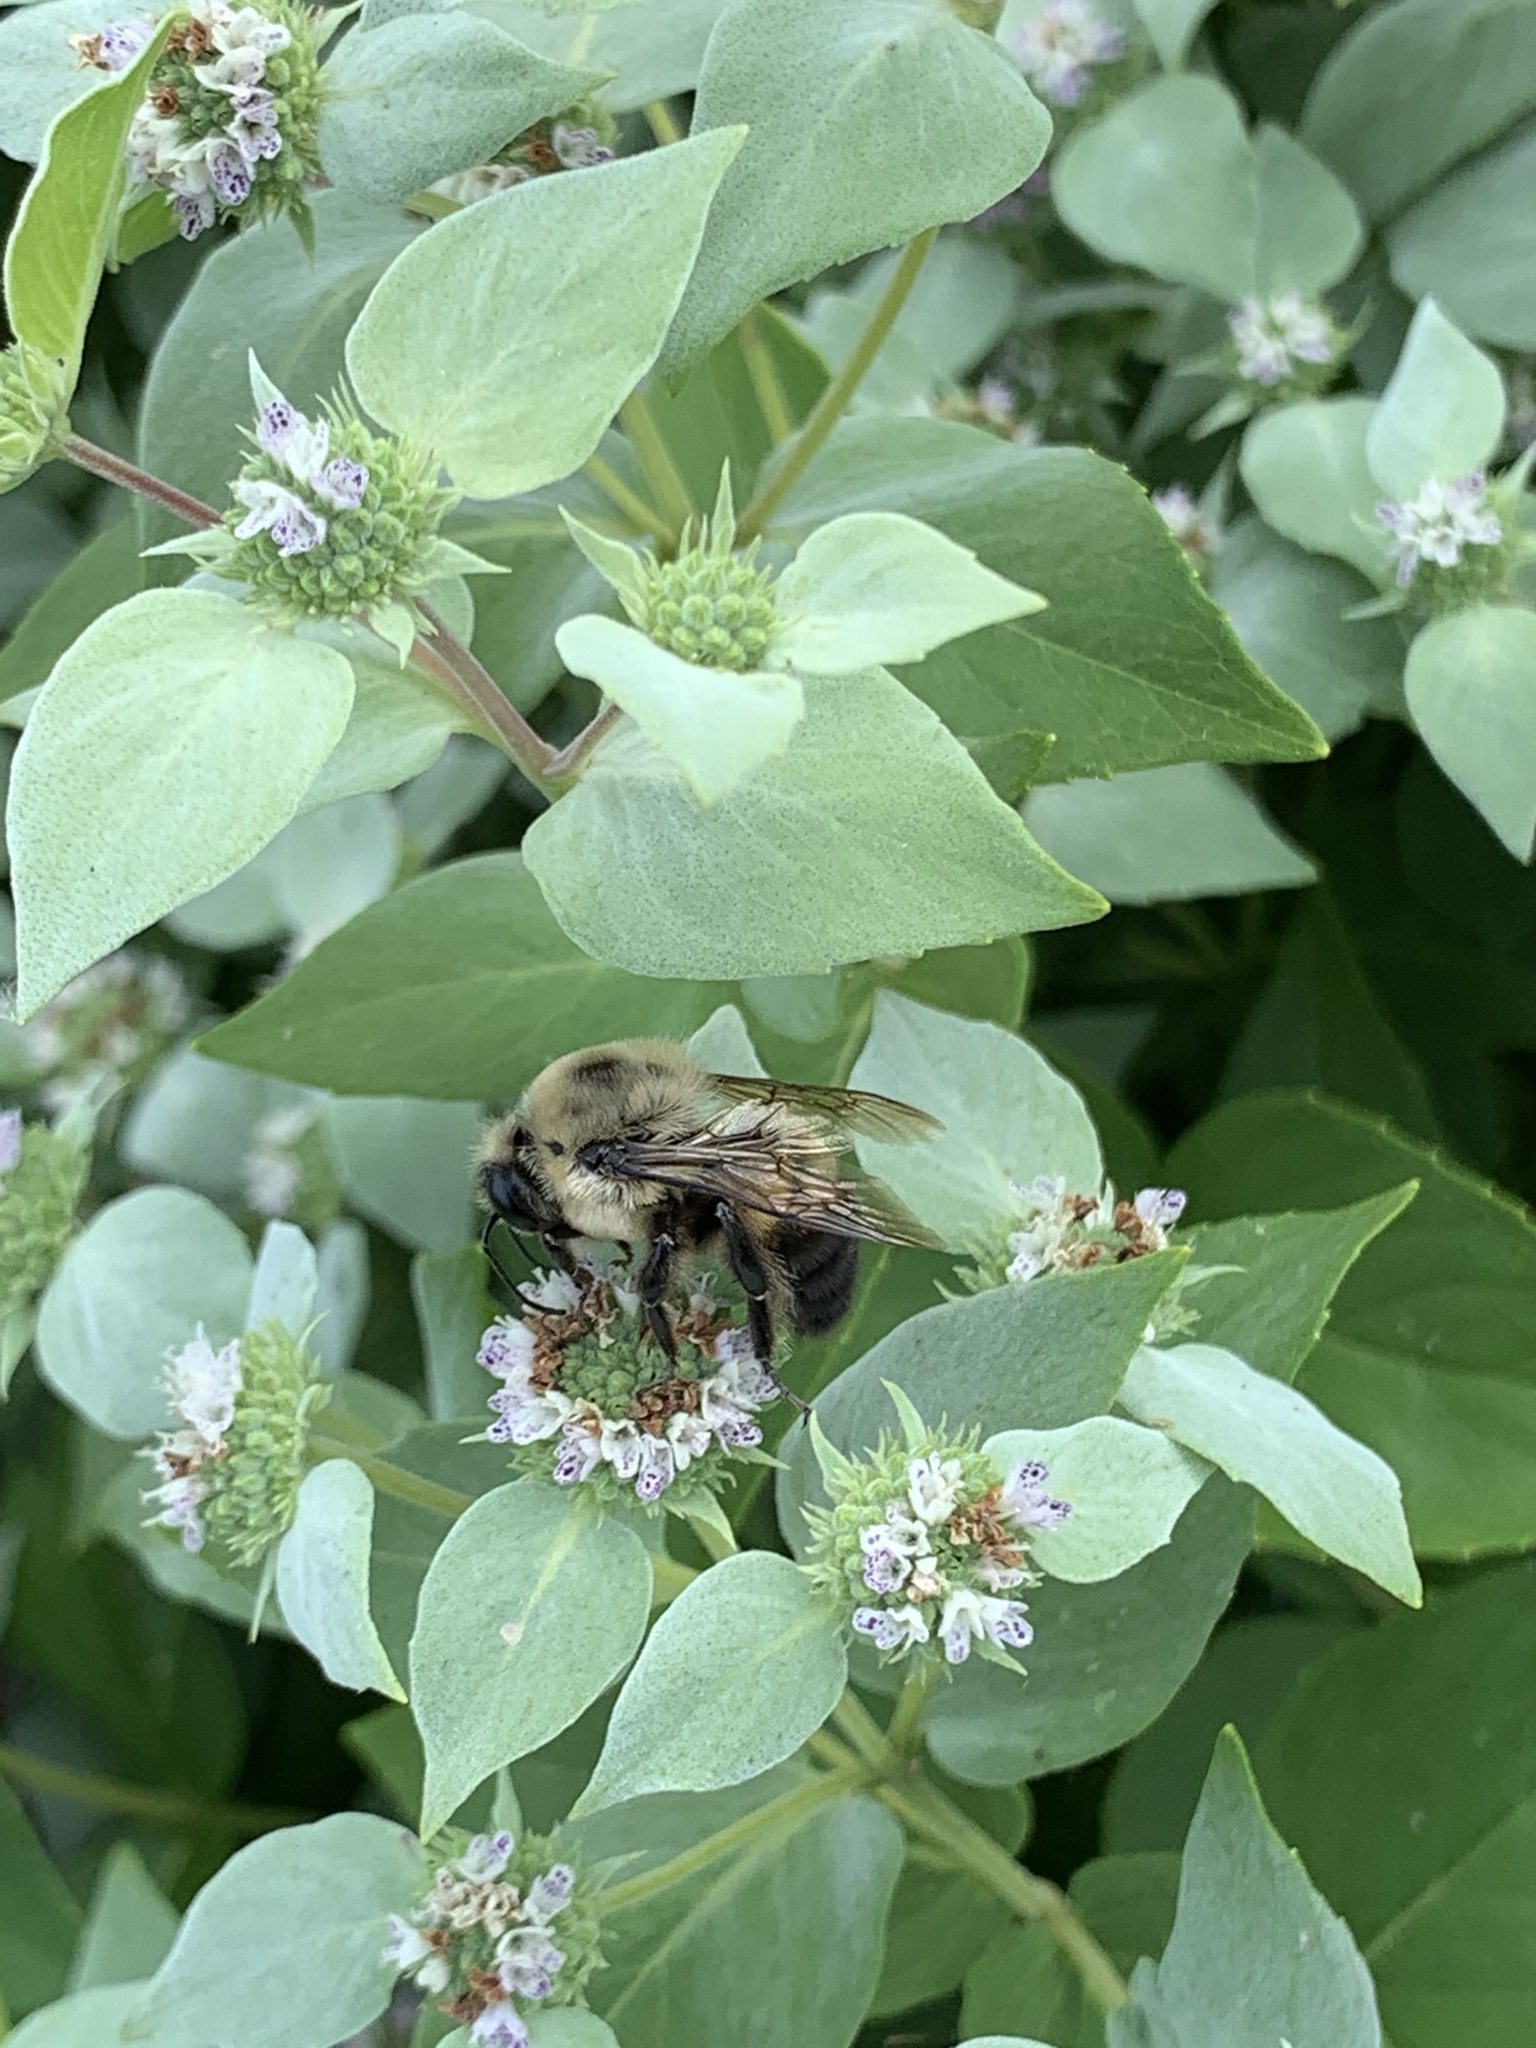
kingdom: Animalia
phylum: Arthropoda
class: Insecta
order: Hymenoptera
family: Apidae
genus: Bombus
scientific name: Bombus griseocollis
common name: Brown-belted bumble bee
